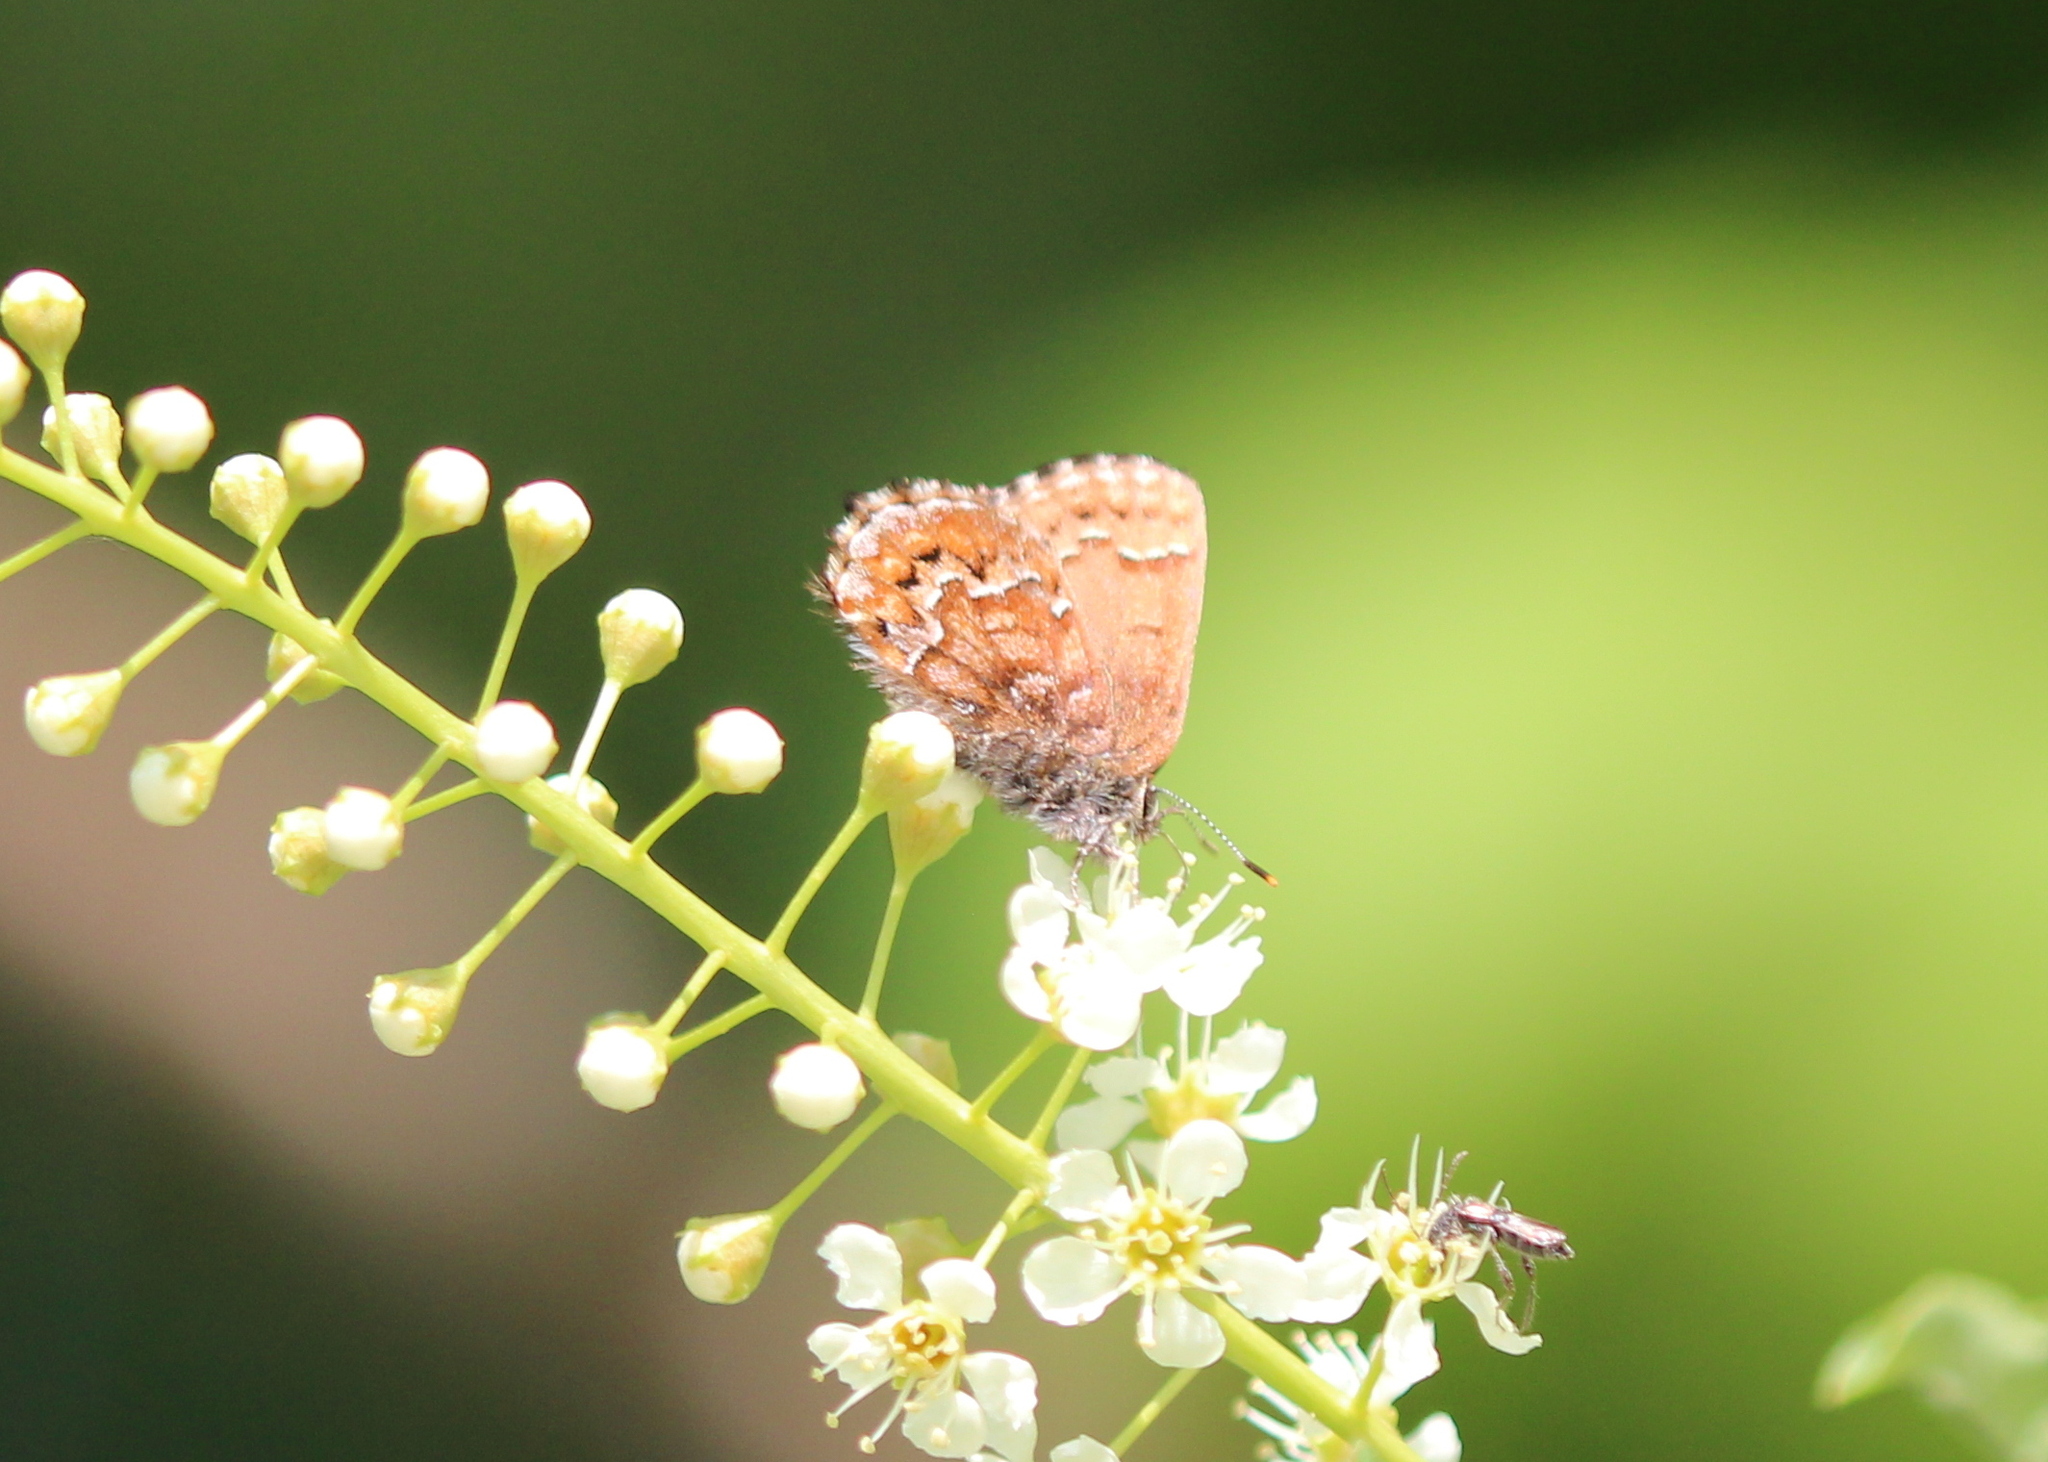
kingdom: Animalia
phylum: Arthropoda
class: Insecta
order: Lepidoptera
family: Lycaenidae
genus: Incisalia
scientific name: Incisalia niphon
